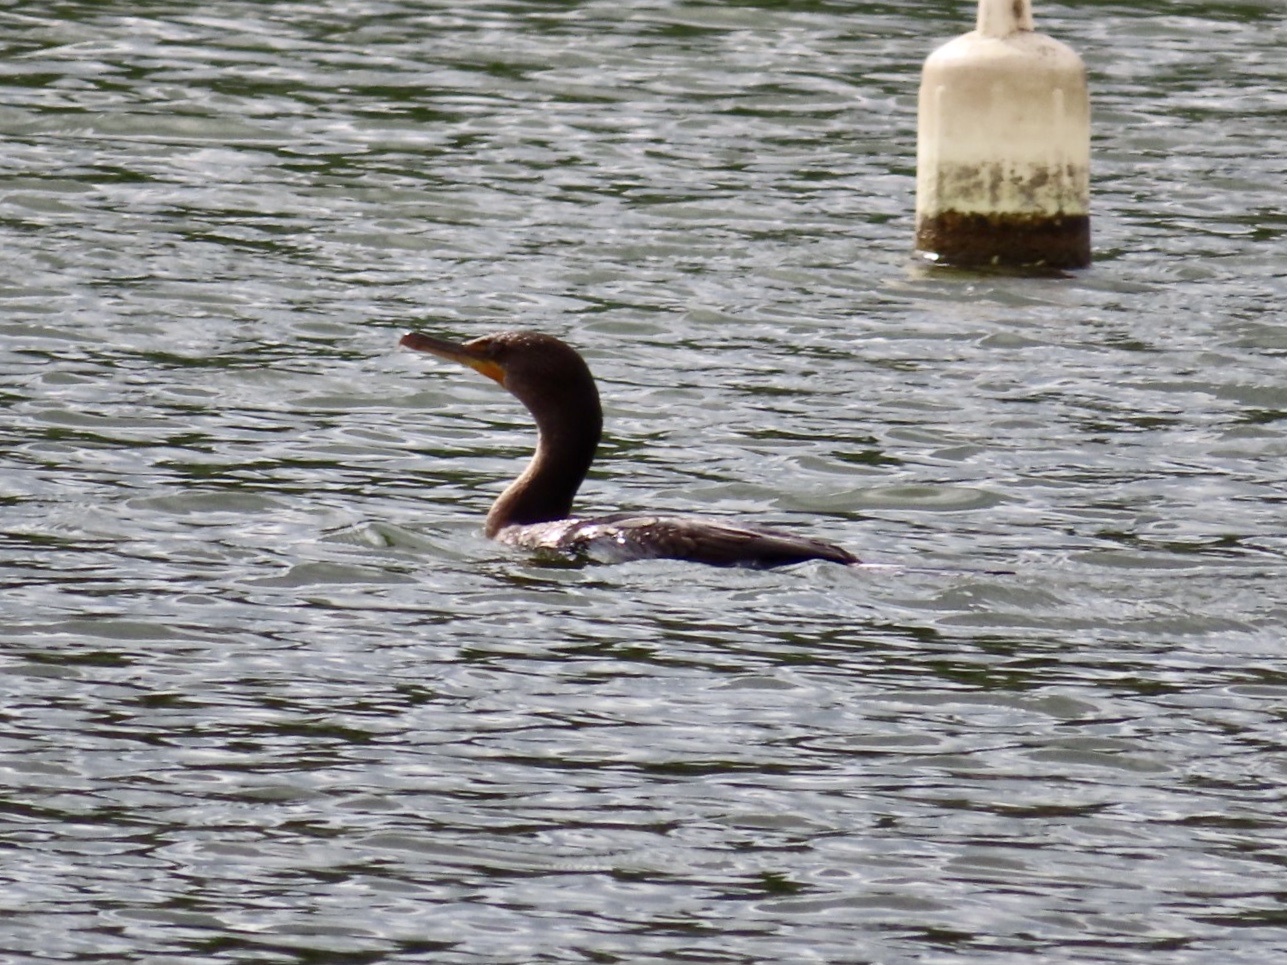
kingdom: Animalia
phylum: Chordata
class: Aves
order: Suliformes
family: Phalacrocoracidae
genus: Phalacrocorax
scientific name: Phalacrocorax auritus
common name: Double-crested cormorant
